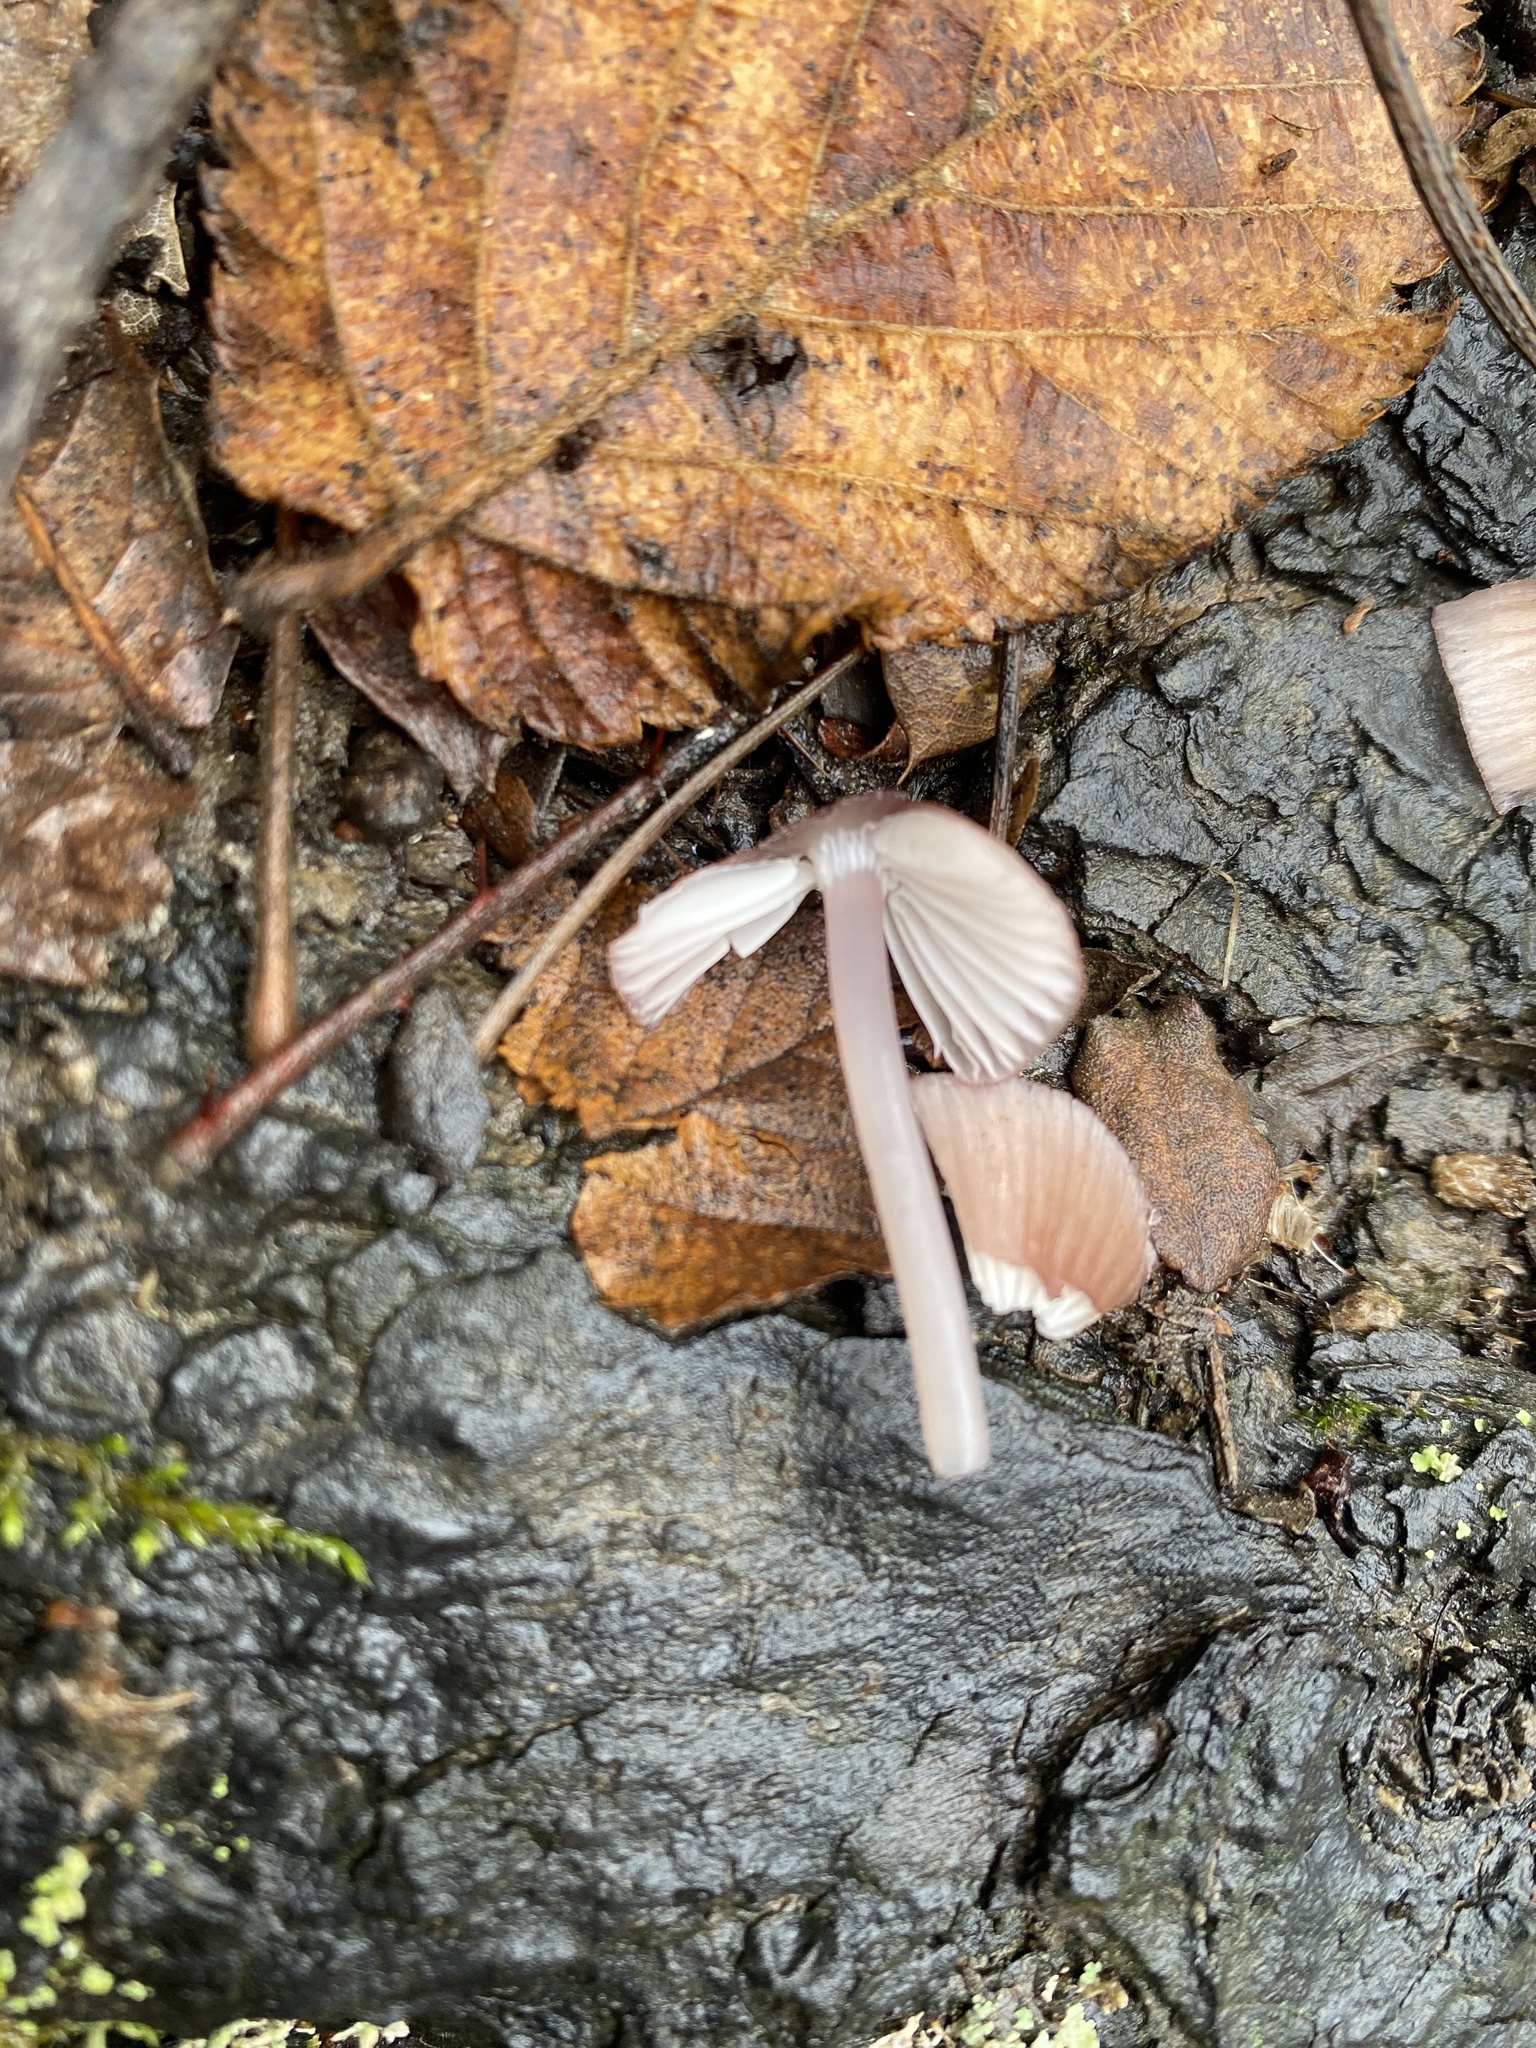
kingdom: Fungi
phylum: Basidiomycota
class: Agaricomycetes
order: Agaricales
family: Mycenaceae
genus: Mycena
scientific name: Mycena purpureofusca
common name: Purple edge bonnet
